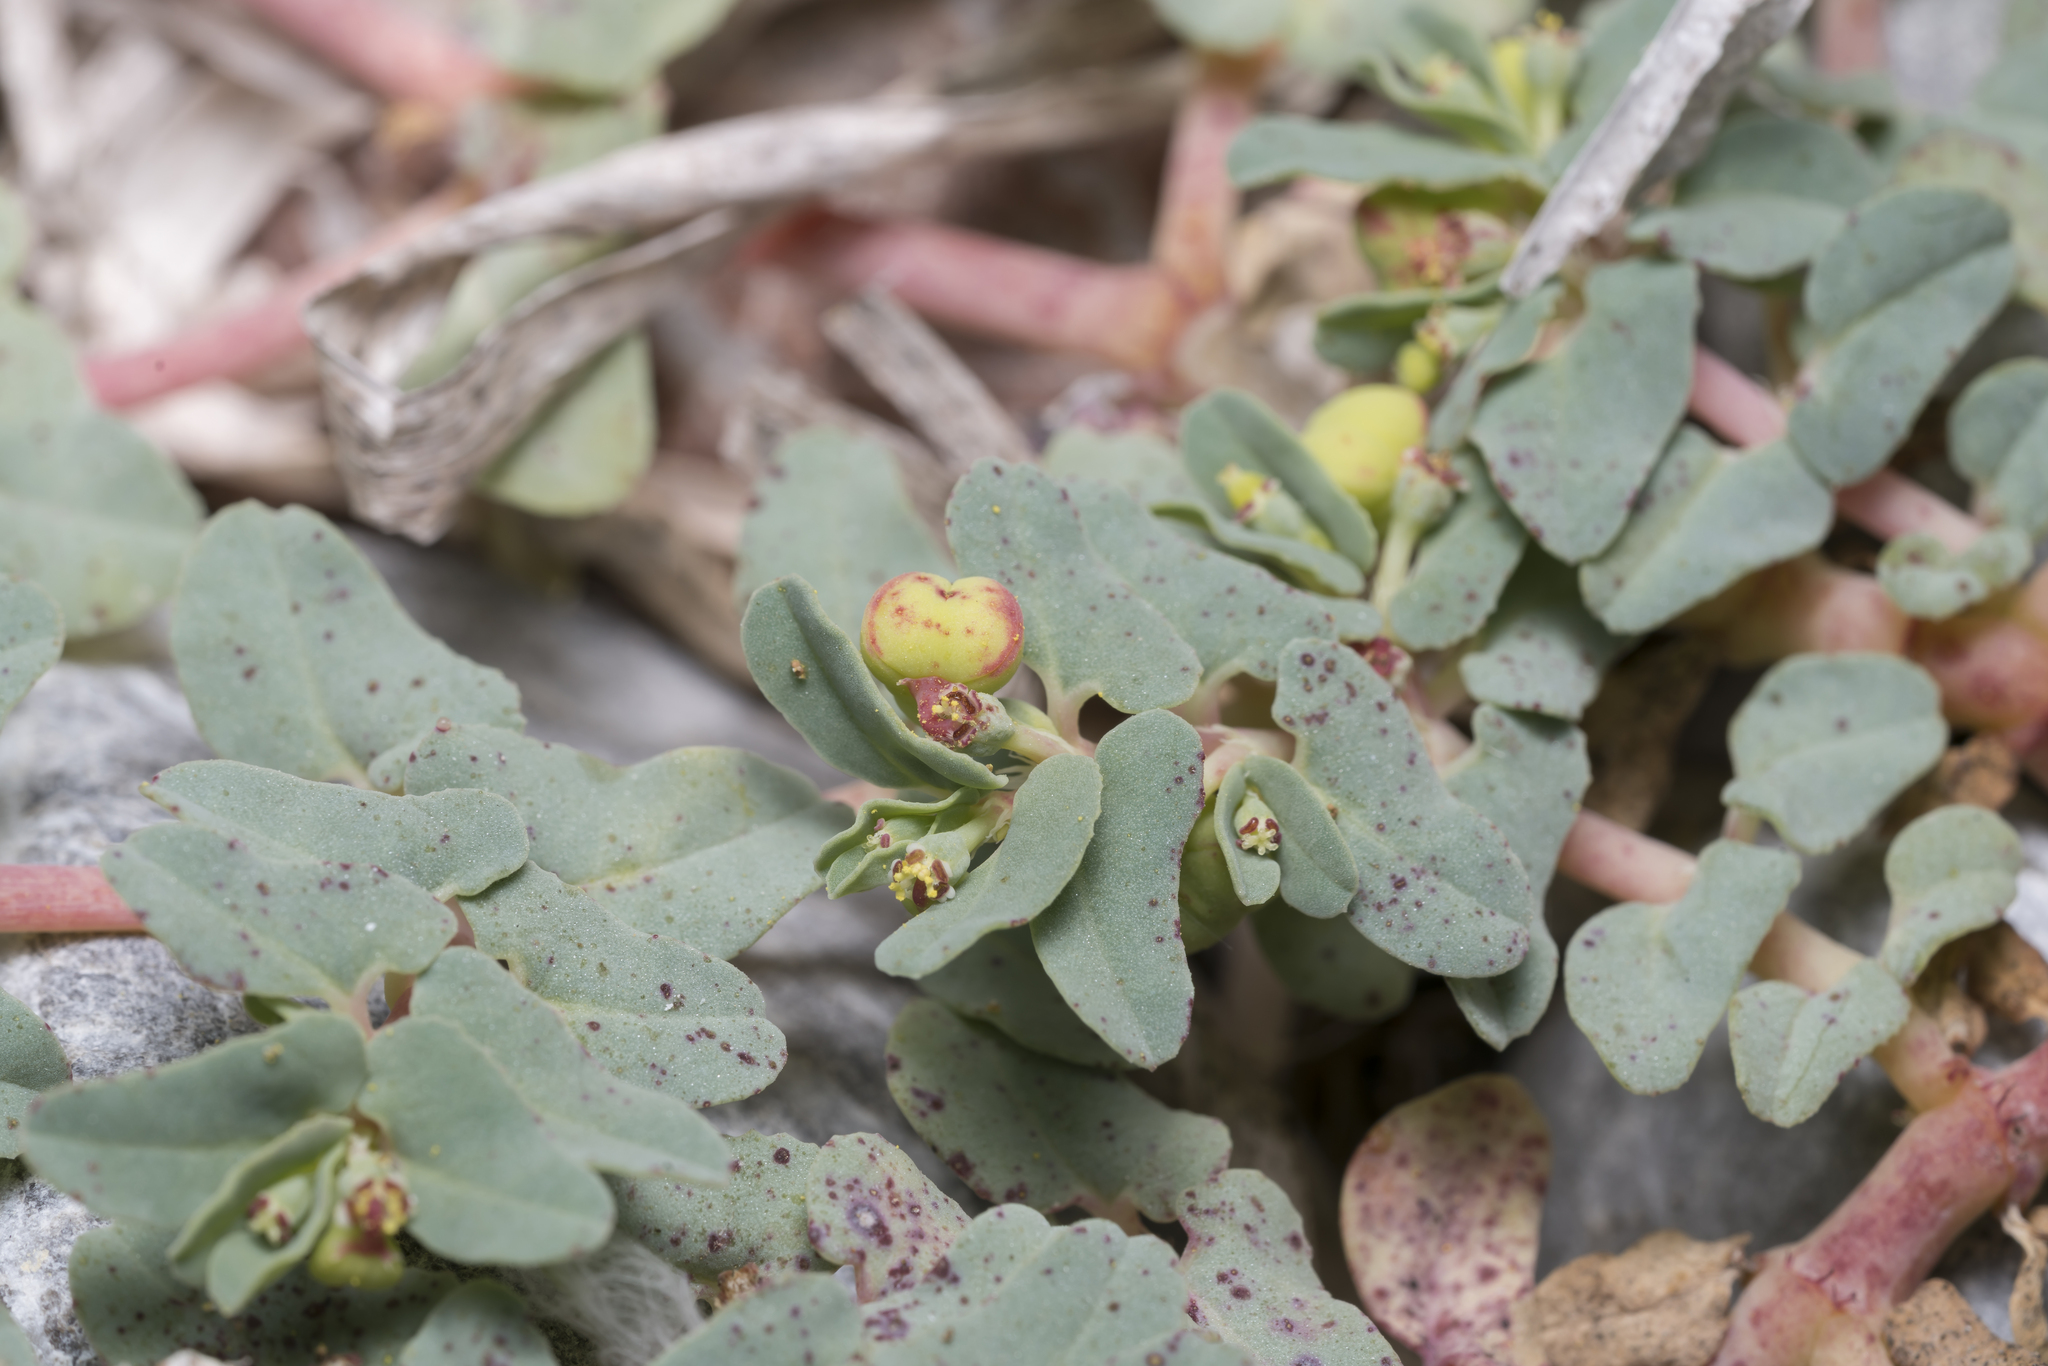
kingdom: Plantae
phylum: Tracheophyta
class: Magnoliopsida
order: Malpighiales
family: Euphorbiaceae
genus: Euphorbia
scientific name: Euphorbia peplis
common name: Purple spurge
